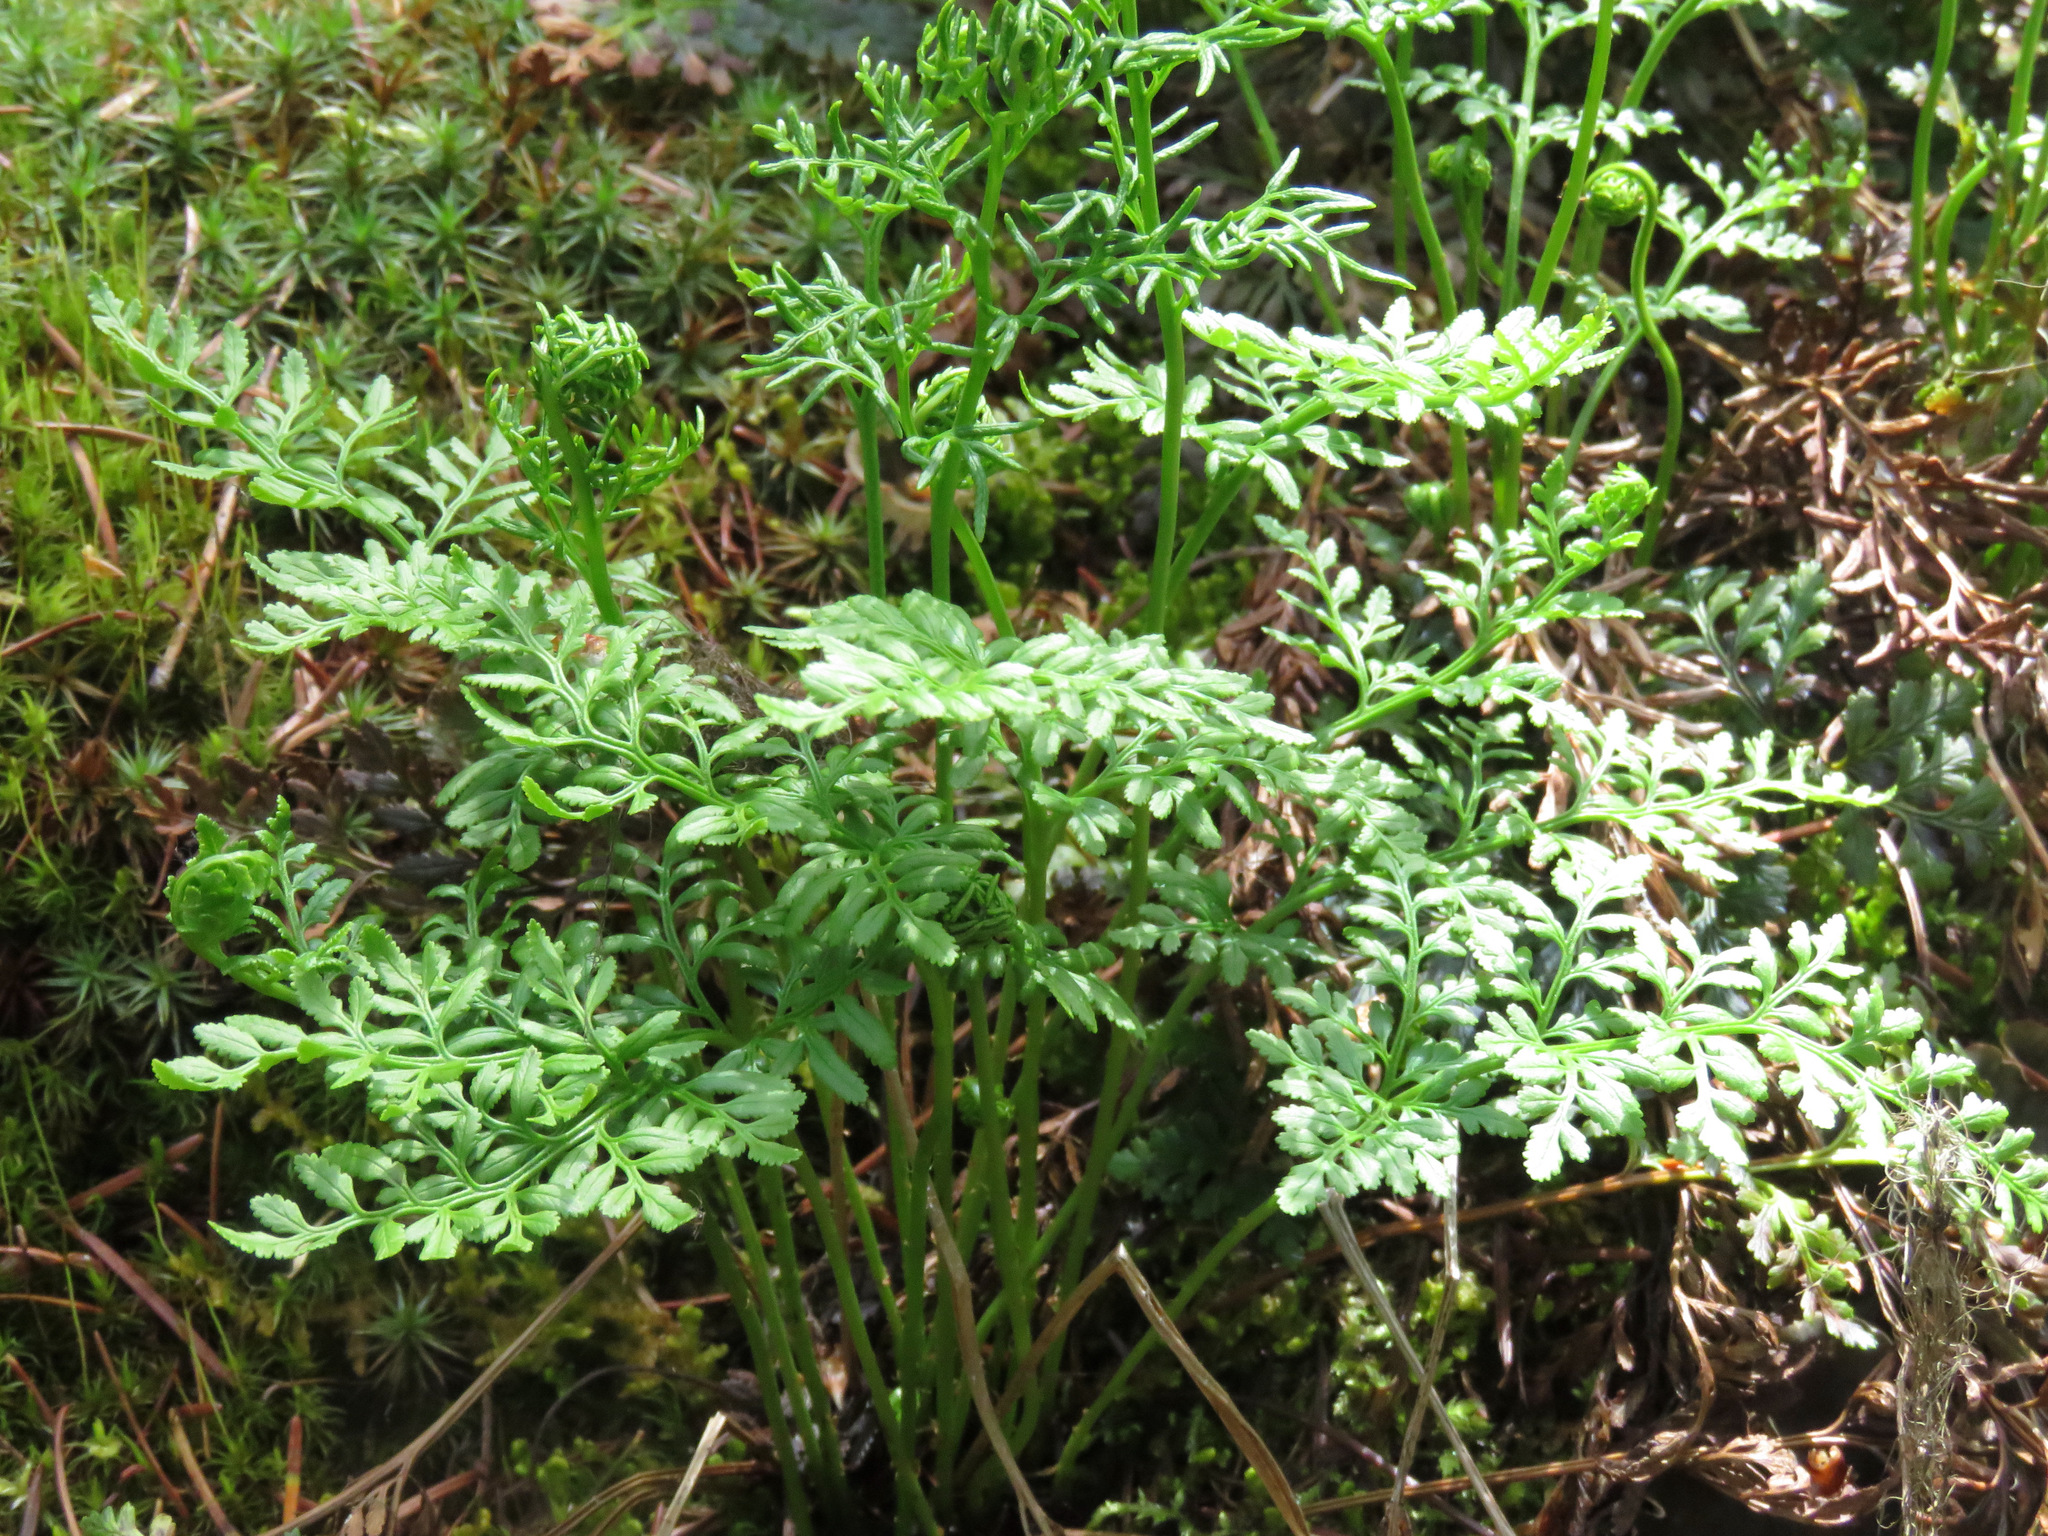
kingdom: Plantae
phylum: Tracheophyta
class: Polypodiopsida
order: Polypodiales
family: Pteridaceae
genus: Cryptogramma
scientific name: Cryptogramma acrostichoides
